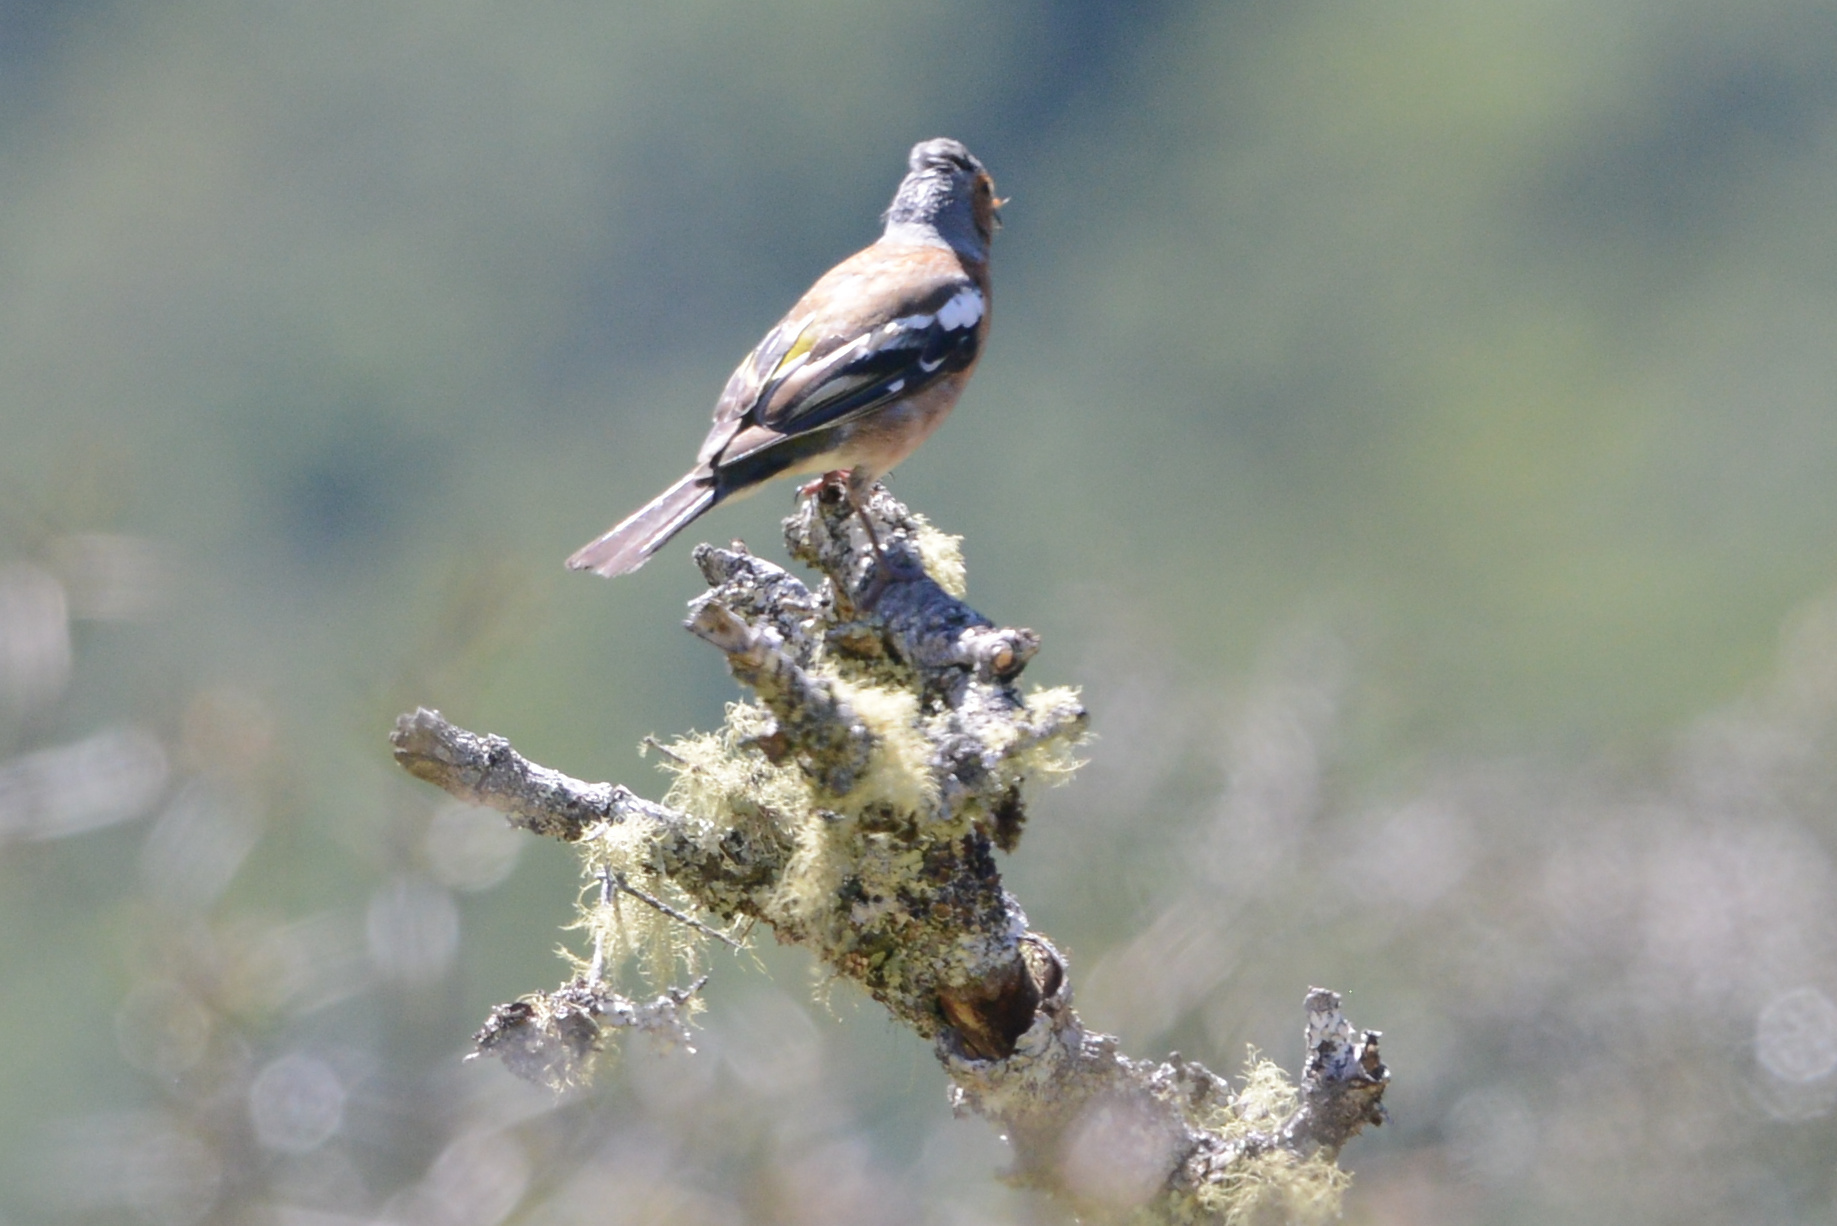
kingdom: Animalia
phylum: Chordata
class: Aves
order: Passeriformes
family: Fringillidae
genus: Fringilla
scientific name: Fringilla coelebs
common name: Common chaffinch
